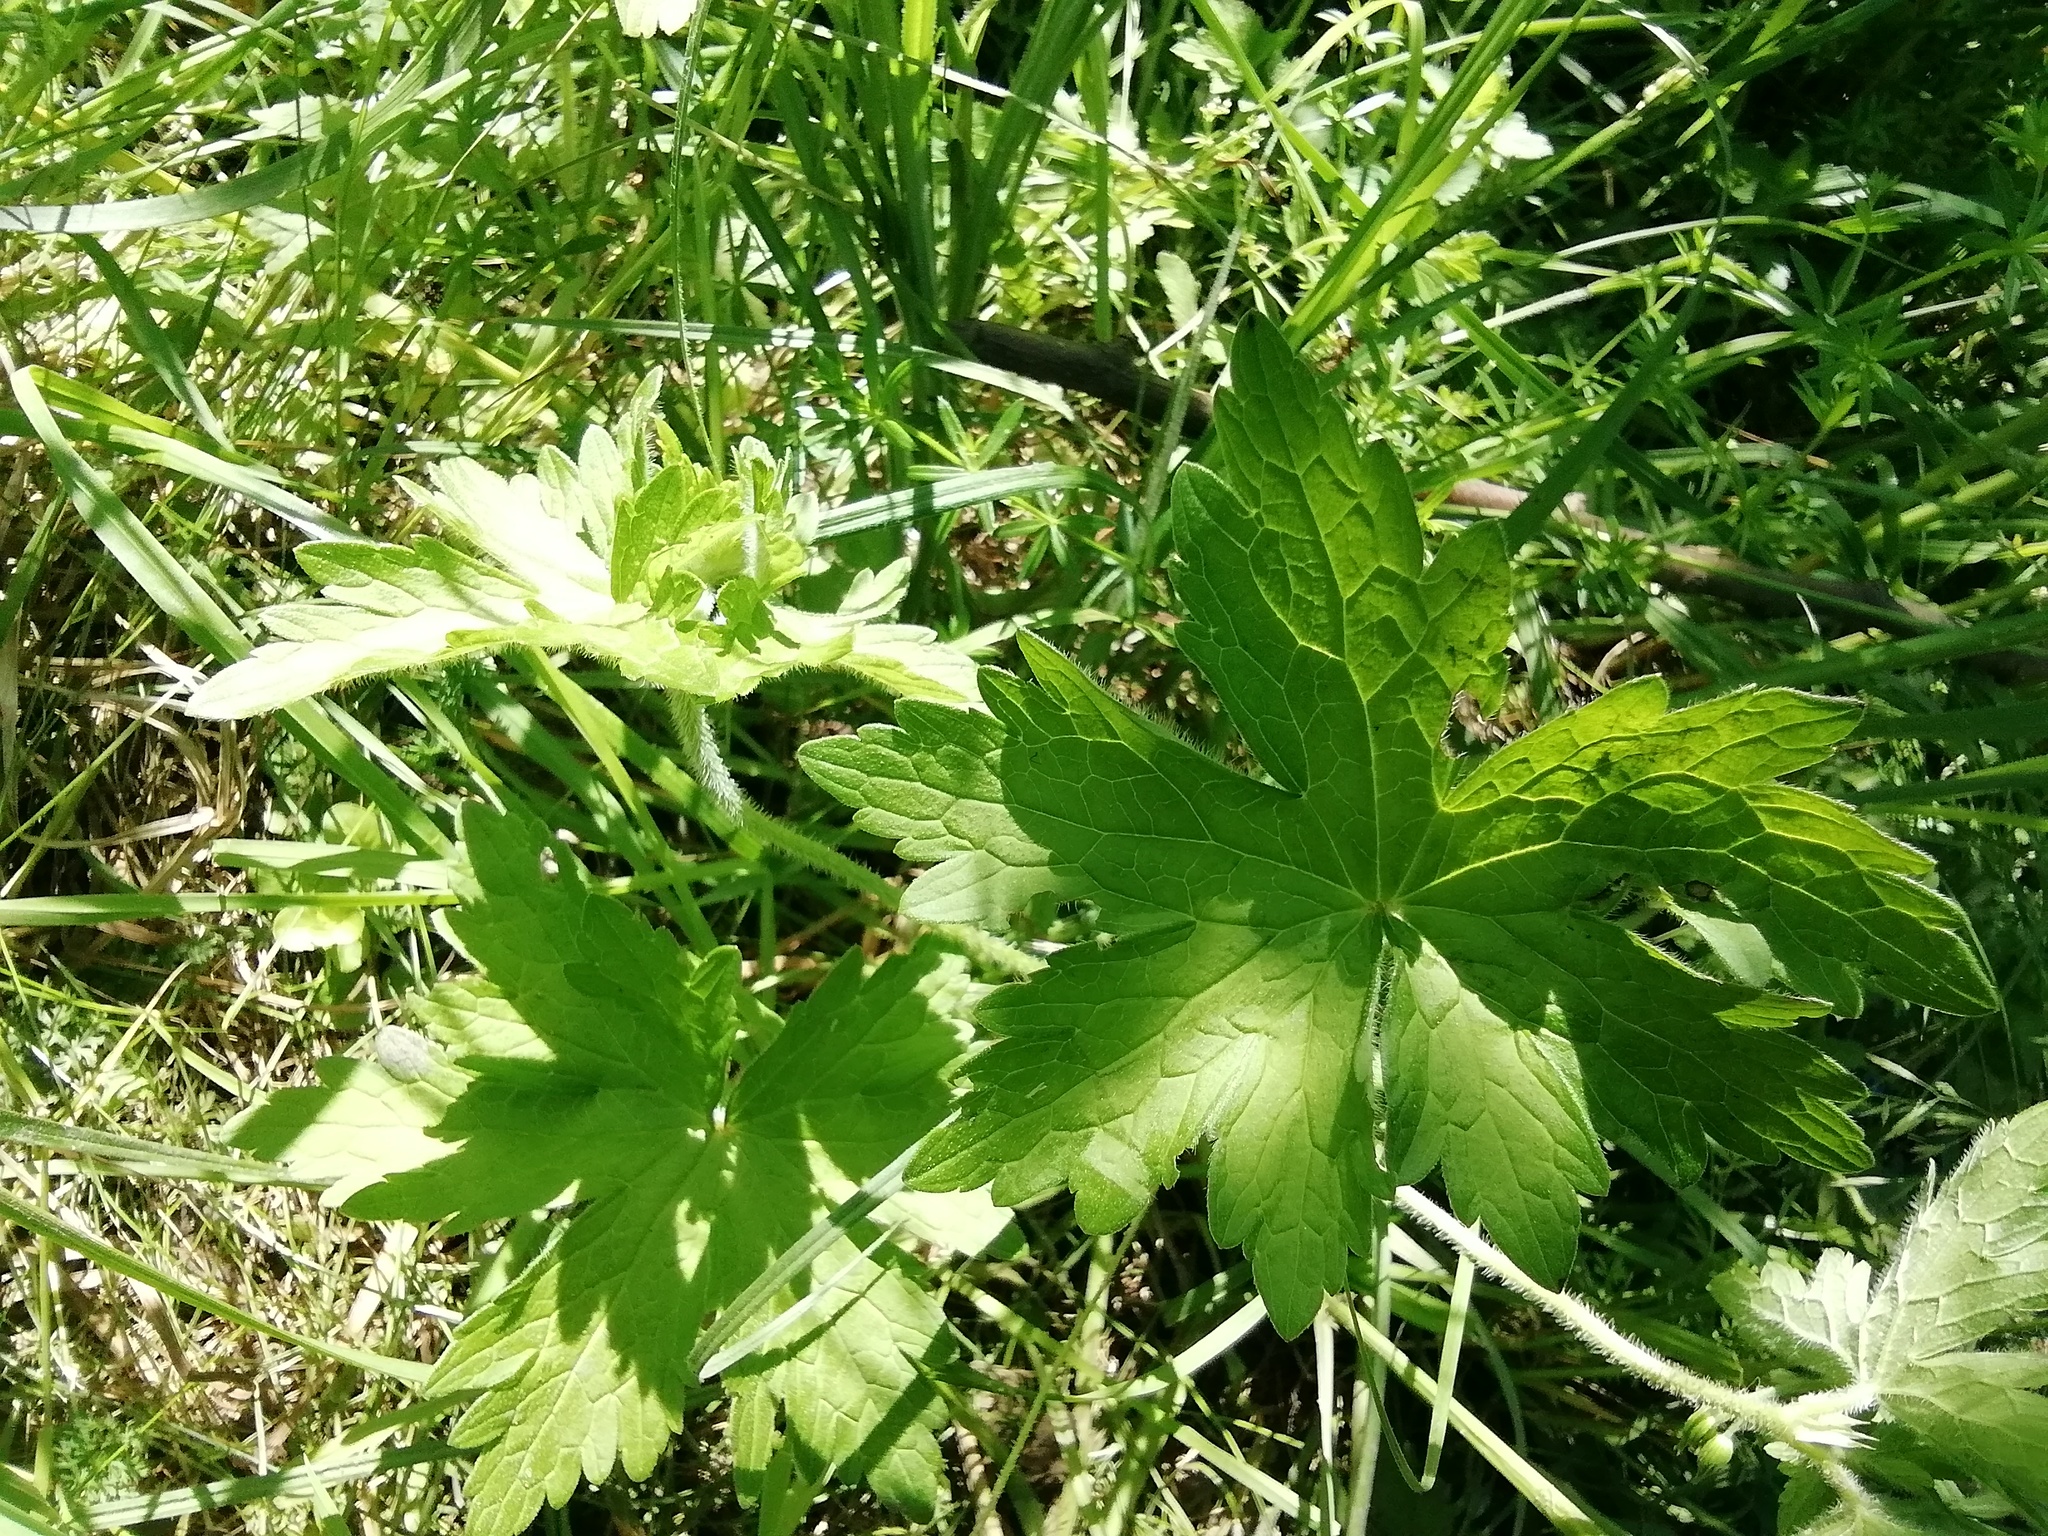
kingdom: Plantae
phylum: Tracheophyta
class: Magnoliopsida
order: Geraniales
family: Geraniaceae
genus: Geranium
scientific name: Geranium palustre
